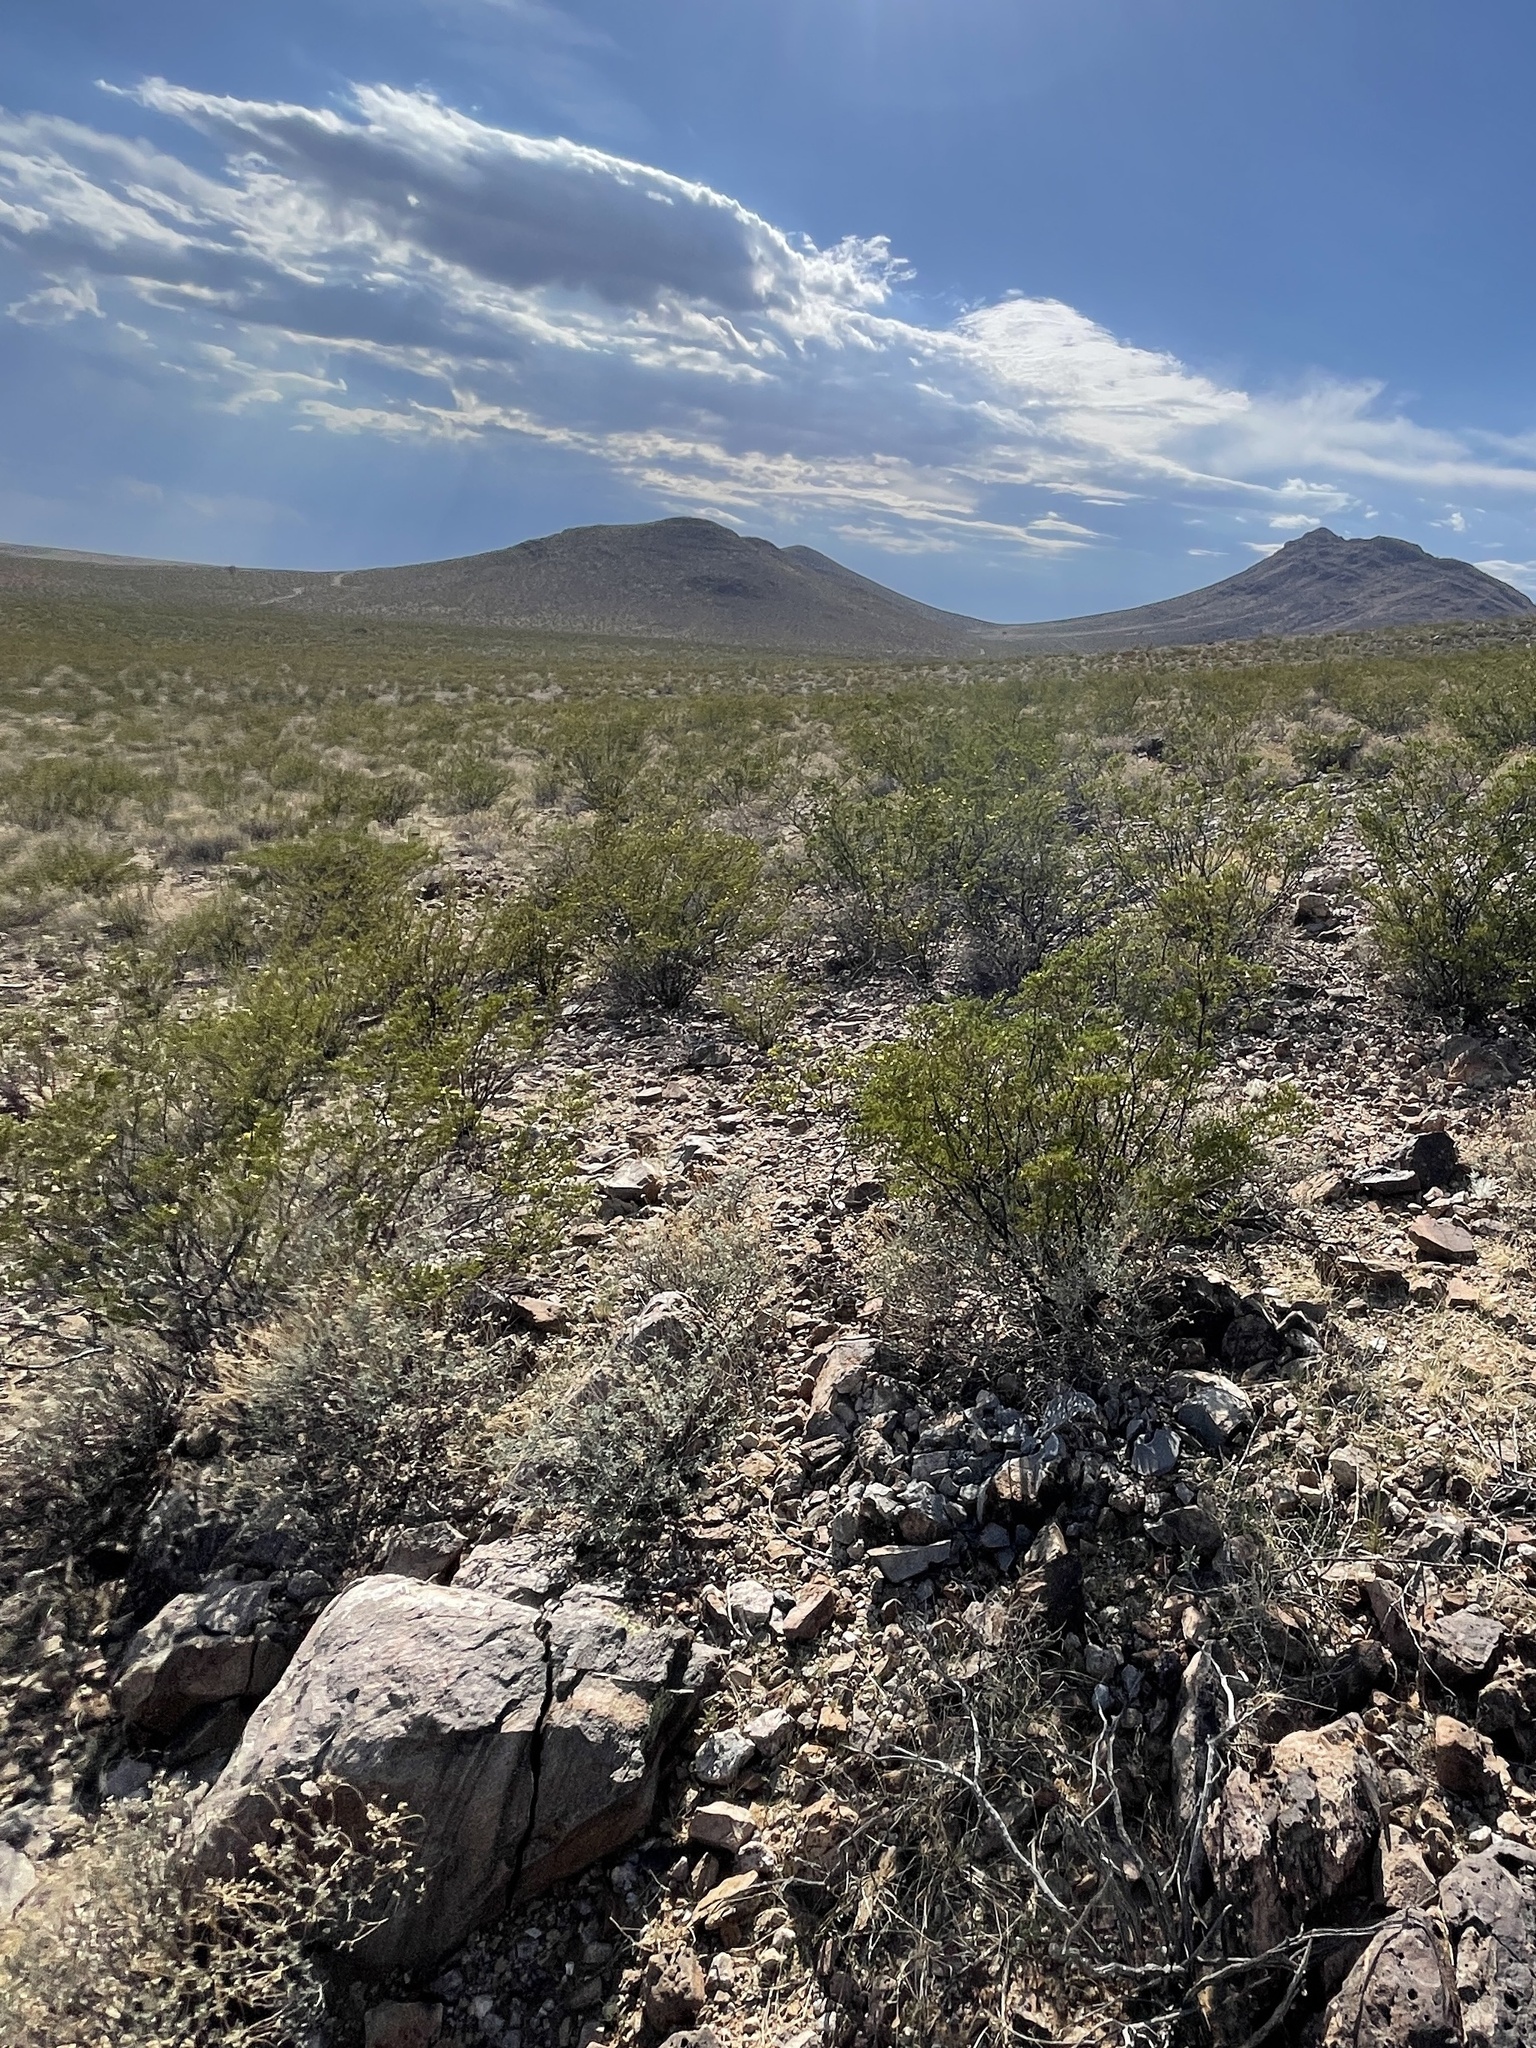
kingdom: Plantae
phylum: Tracheophyta
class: Magnoliopsida
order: Zygophyllales
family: Zygophyllaceae
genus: Larrea
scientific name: Larrea tridentata
